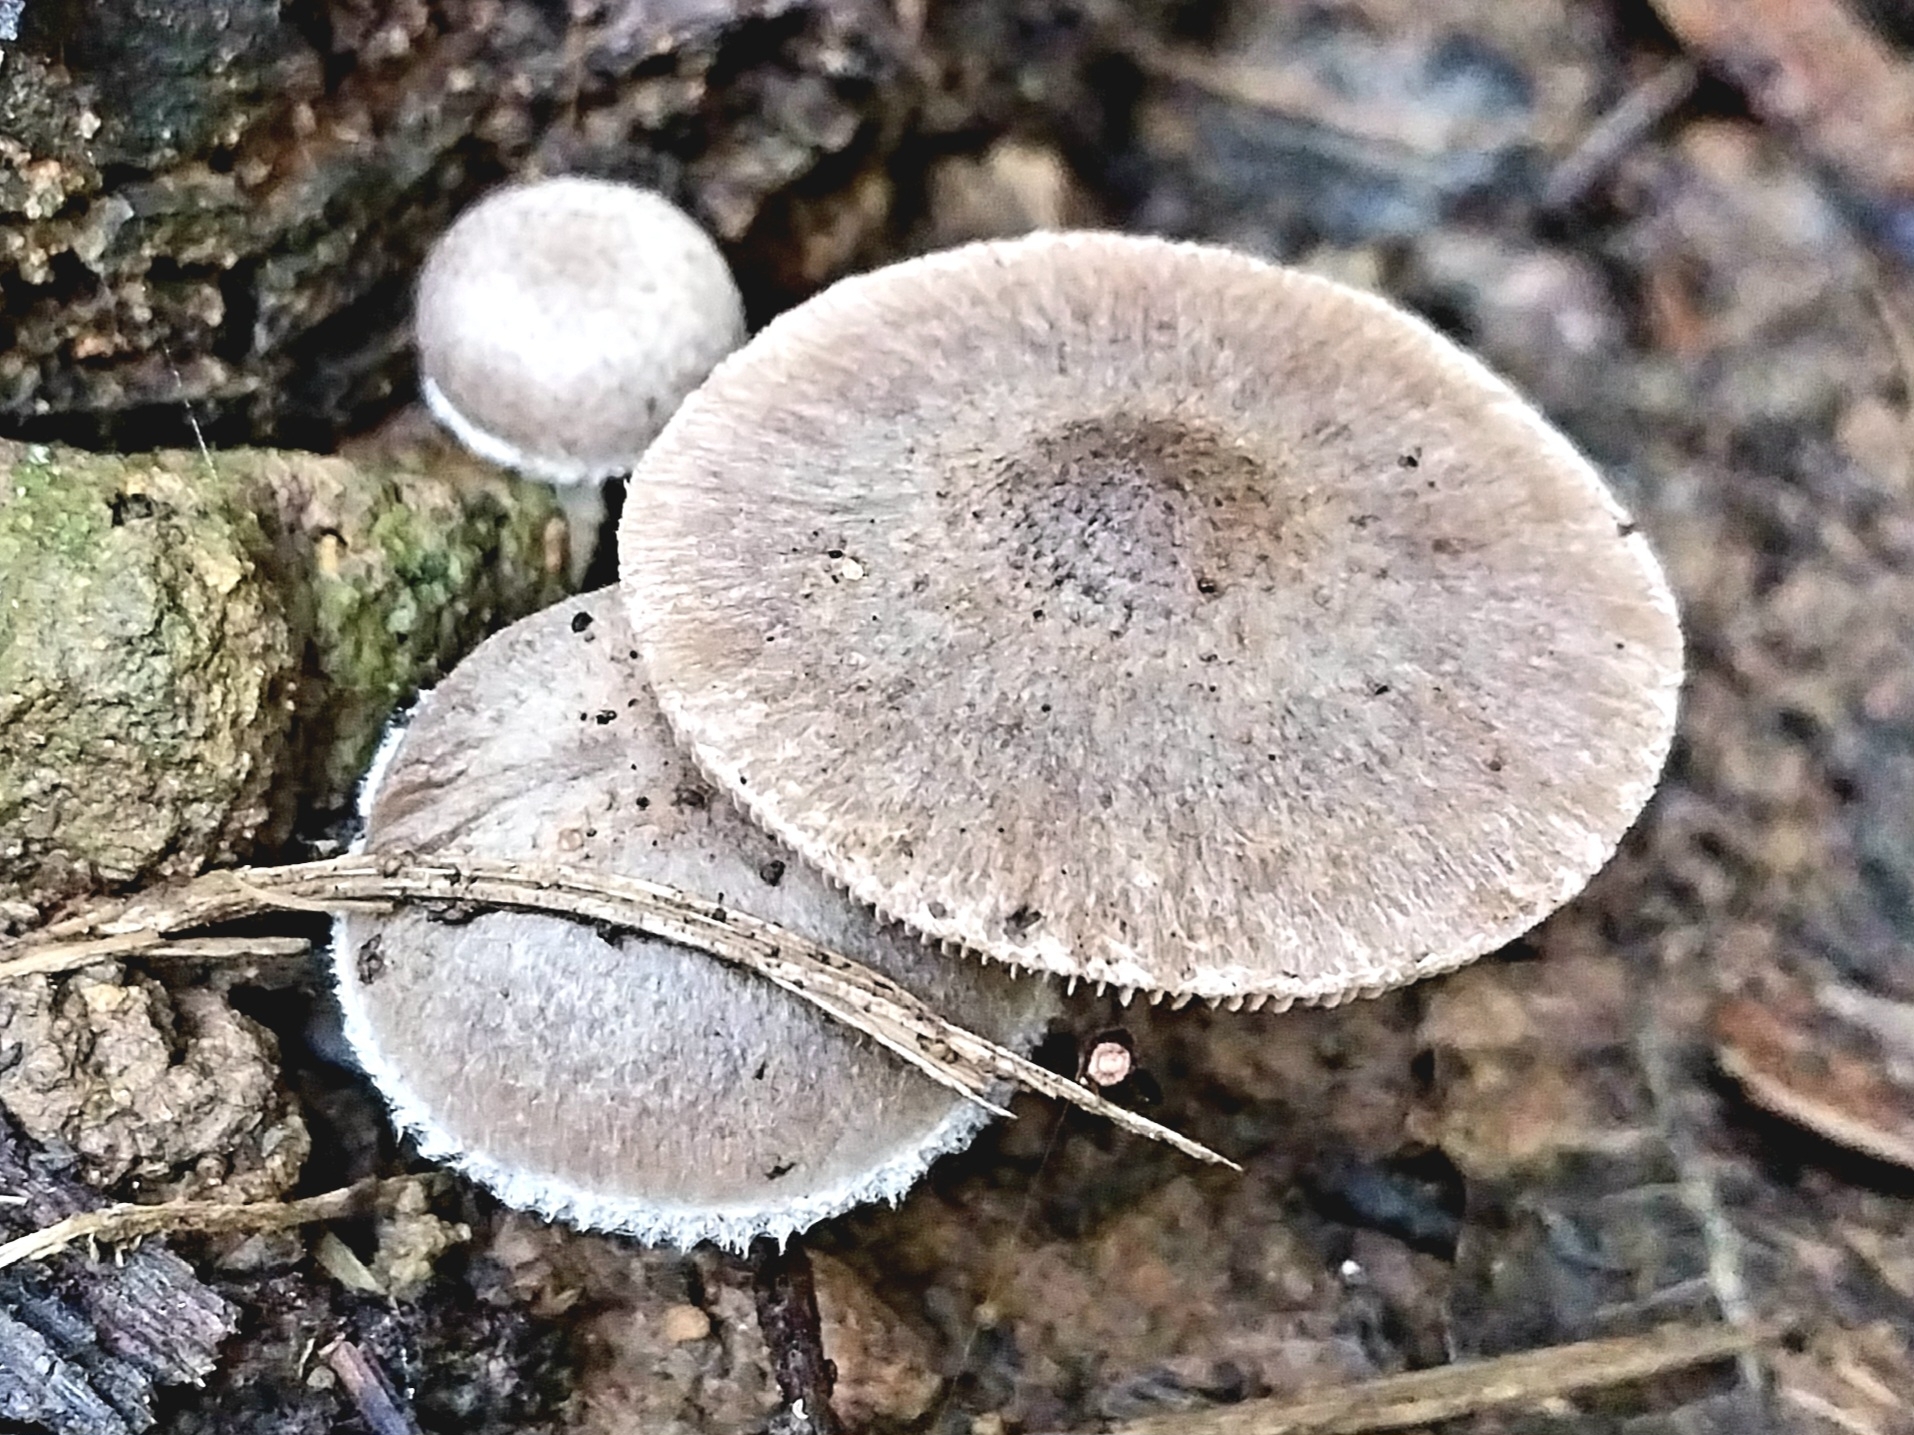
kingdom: Fungi
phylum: Basidiomycota
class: Agaricomycetes
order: Agaricales
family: Psathyrellaceae
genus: Psathyrella
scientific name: Psathyrella uliginicola
